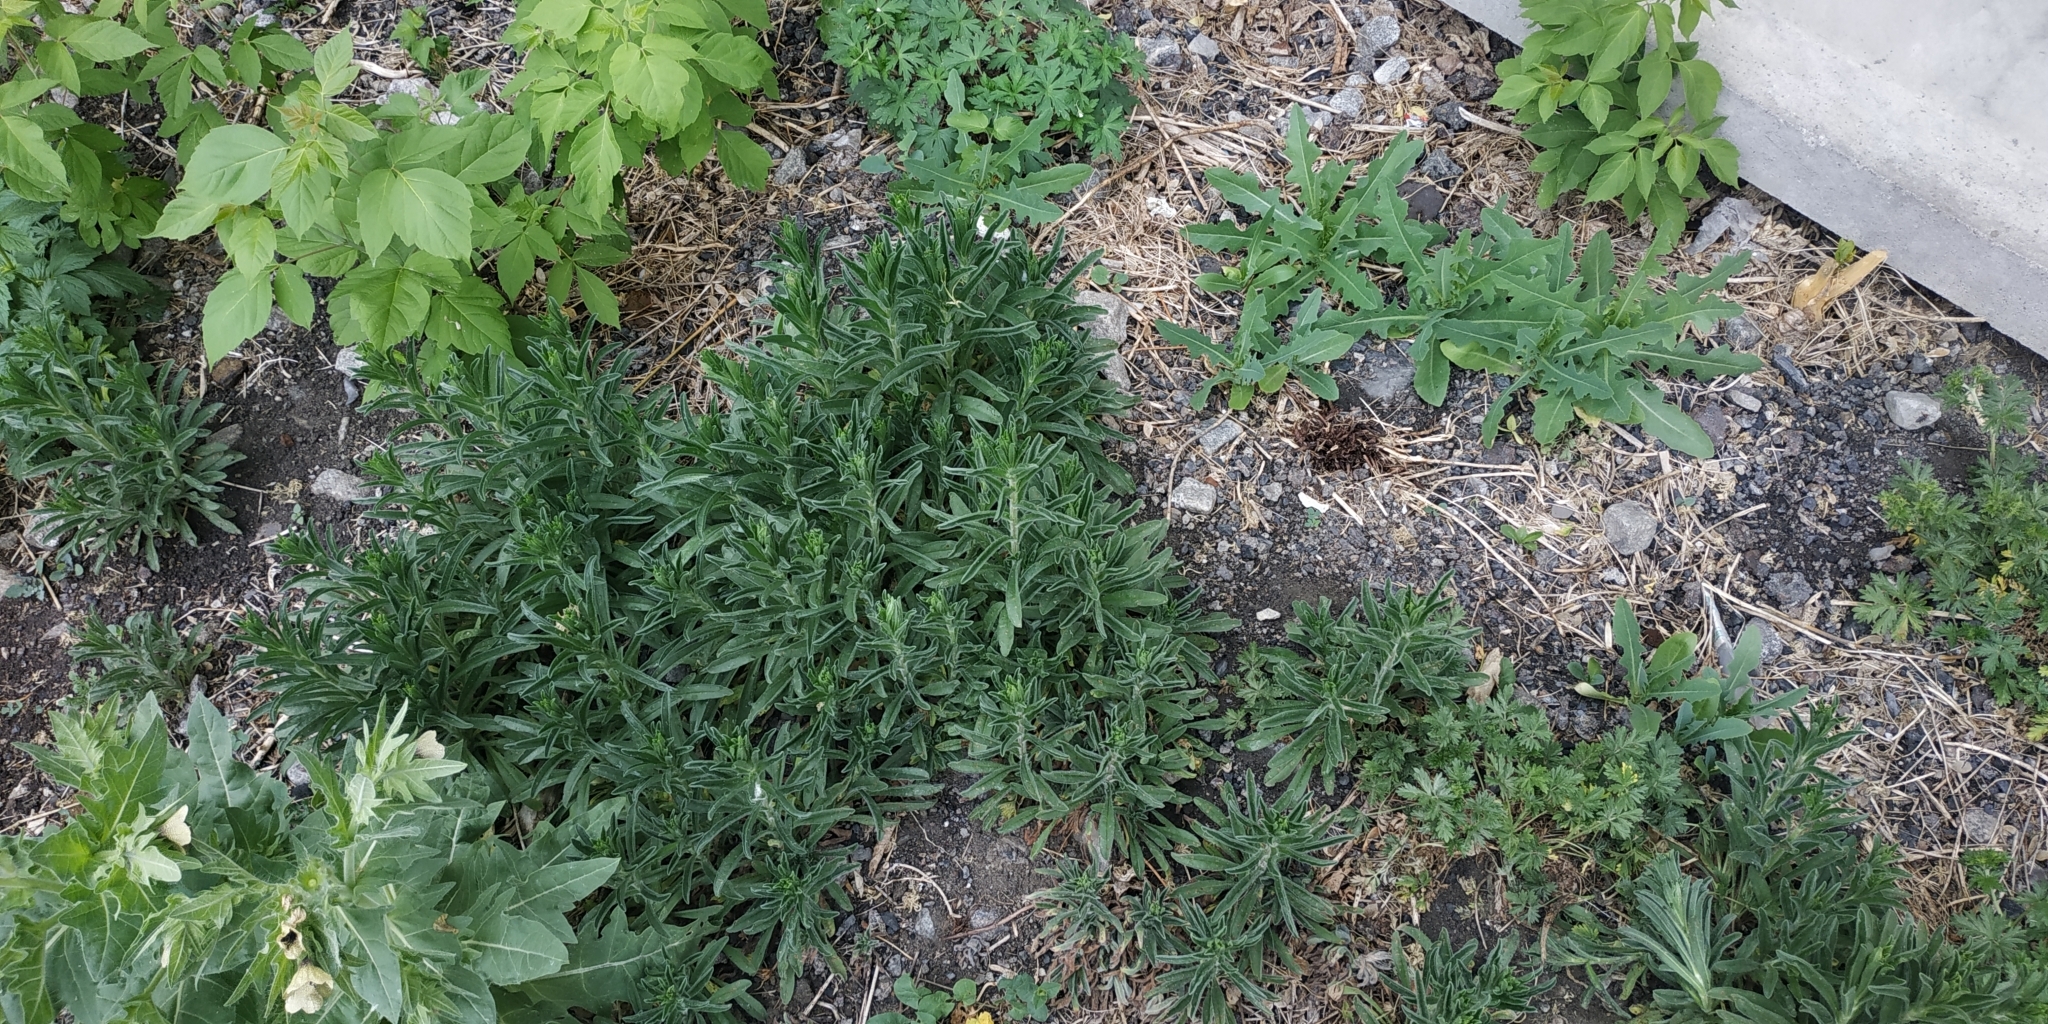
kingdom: Plantae
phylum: Tracheophyta
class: Magnoliopsida
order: Boraginales
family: Boraginaceae
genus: Echium
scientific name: Echium vulgare
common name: Common viper's bugloss
